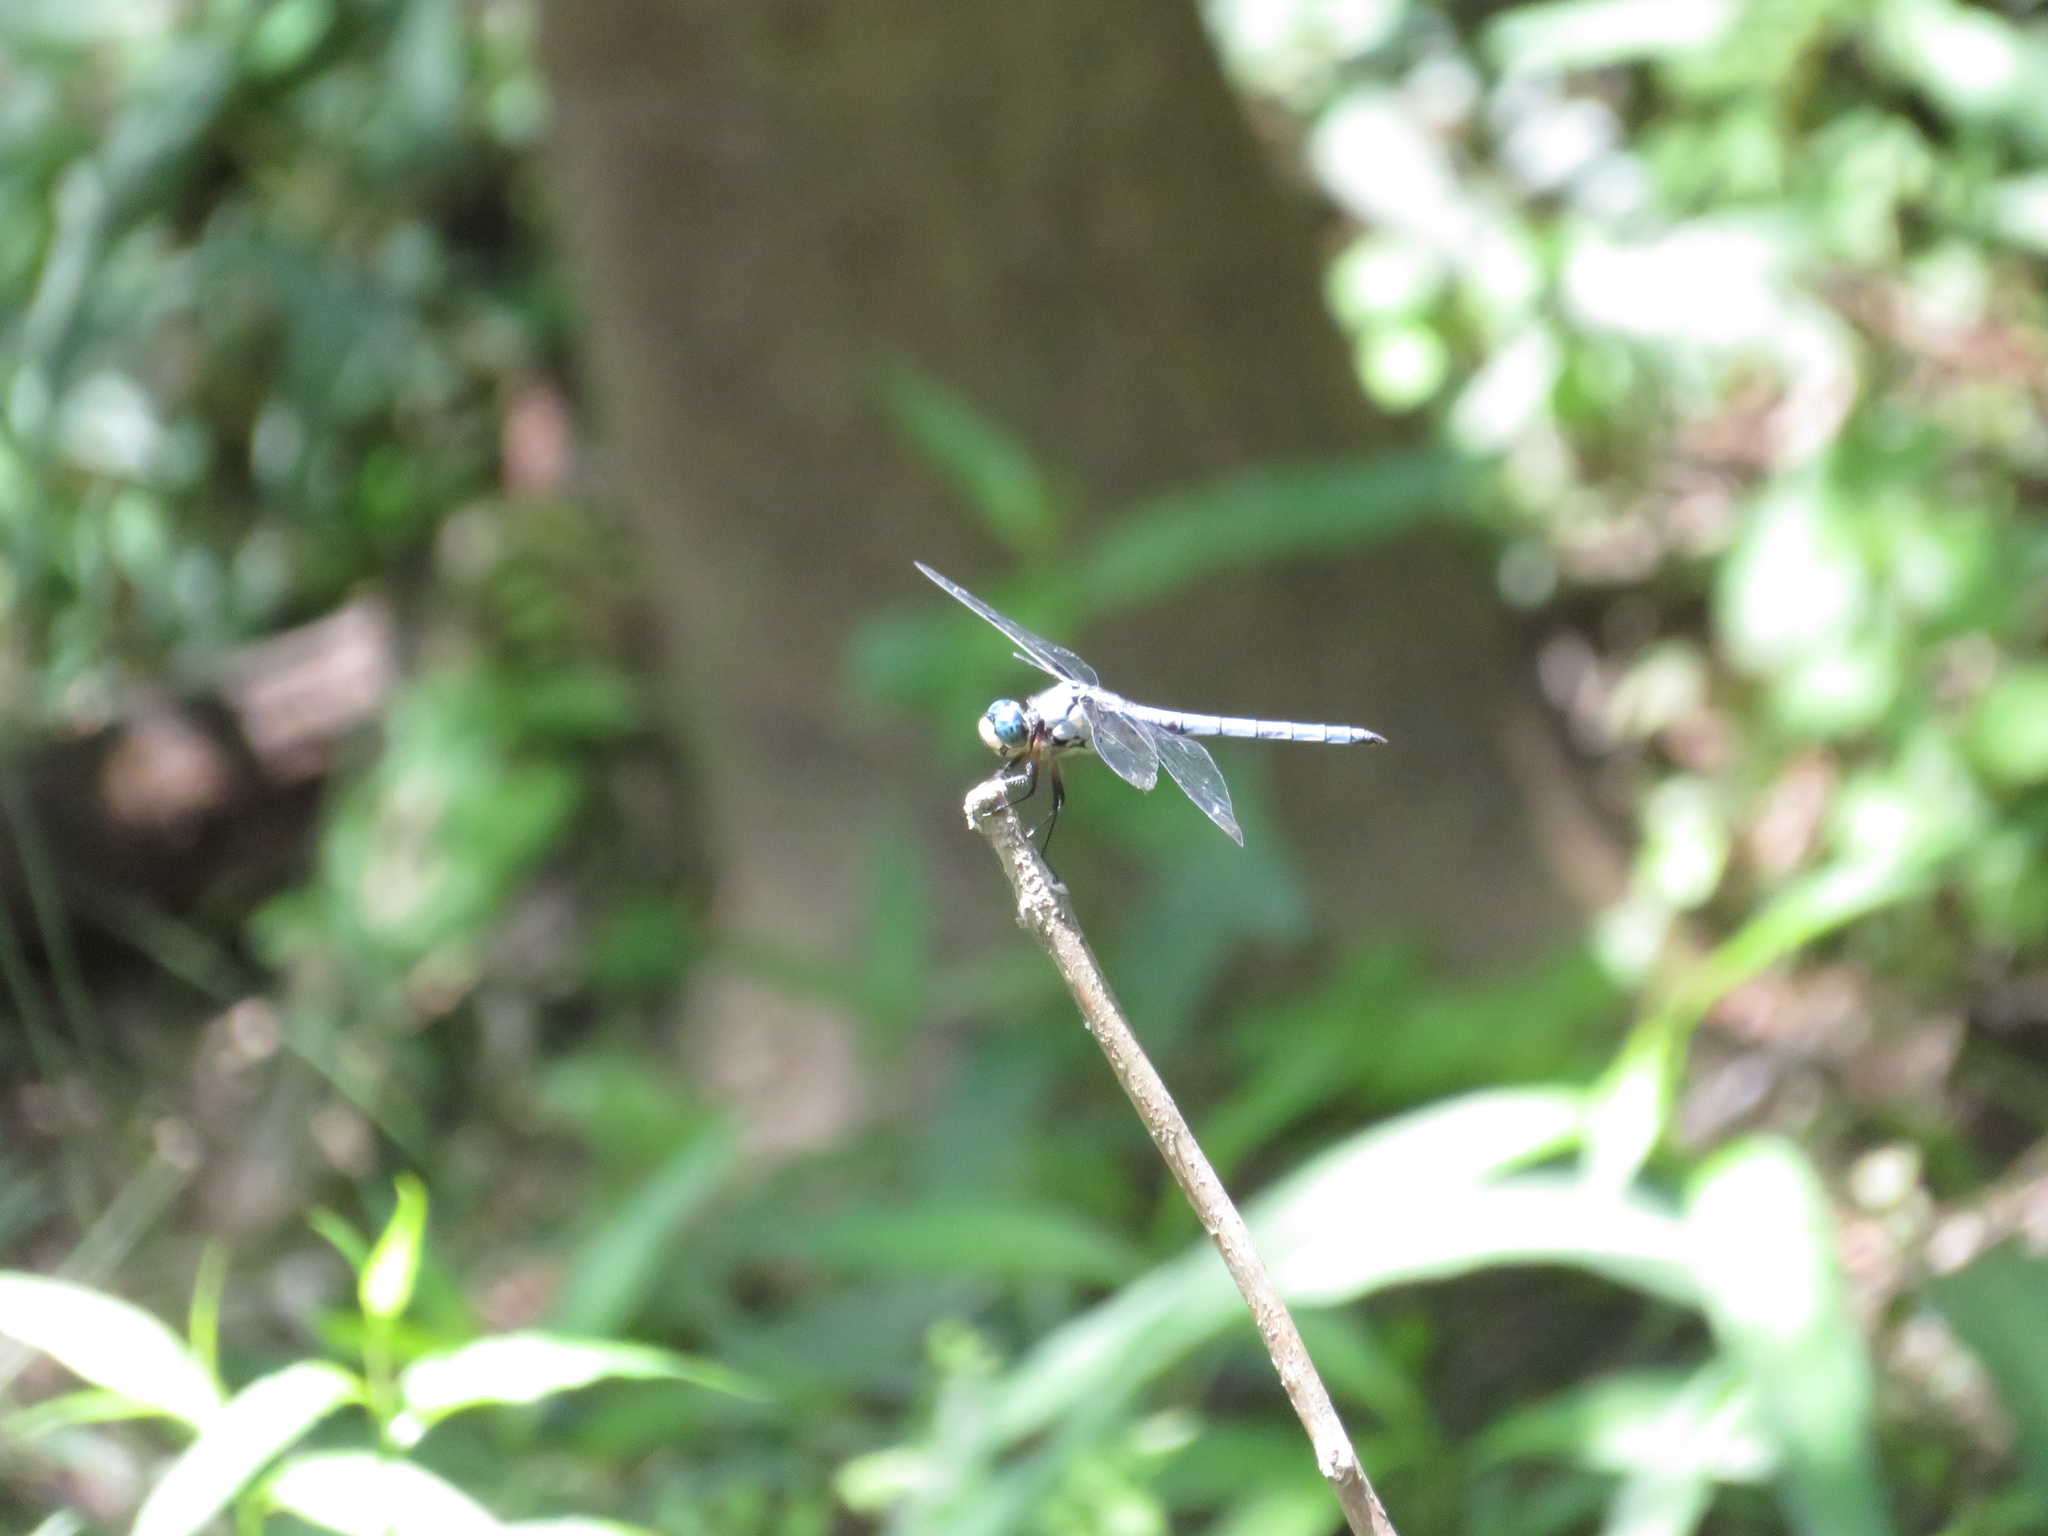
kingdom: Animalia
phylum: Arthropoda
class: Insecta
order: Odonata
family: Libellulidae
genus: Libellula
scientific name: Libellula vibrans
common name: Great blue skimmer
